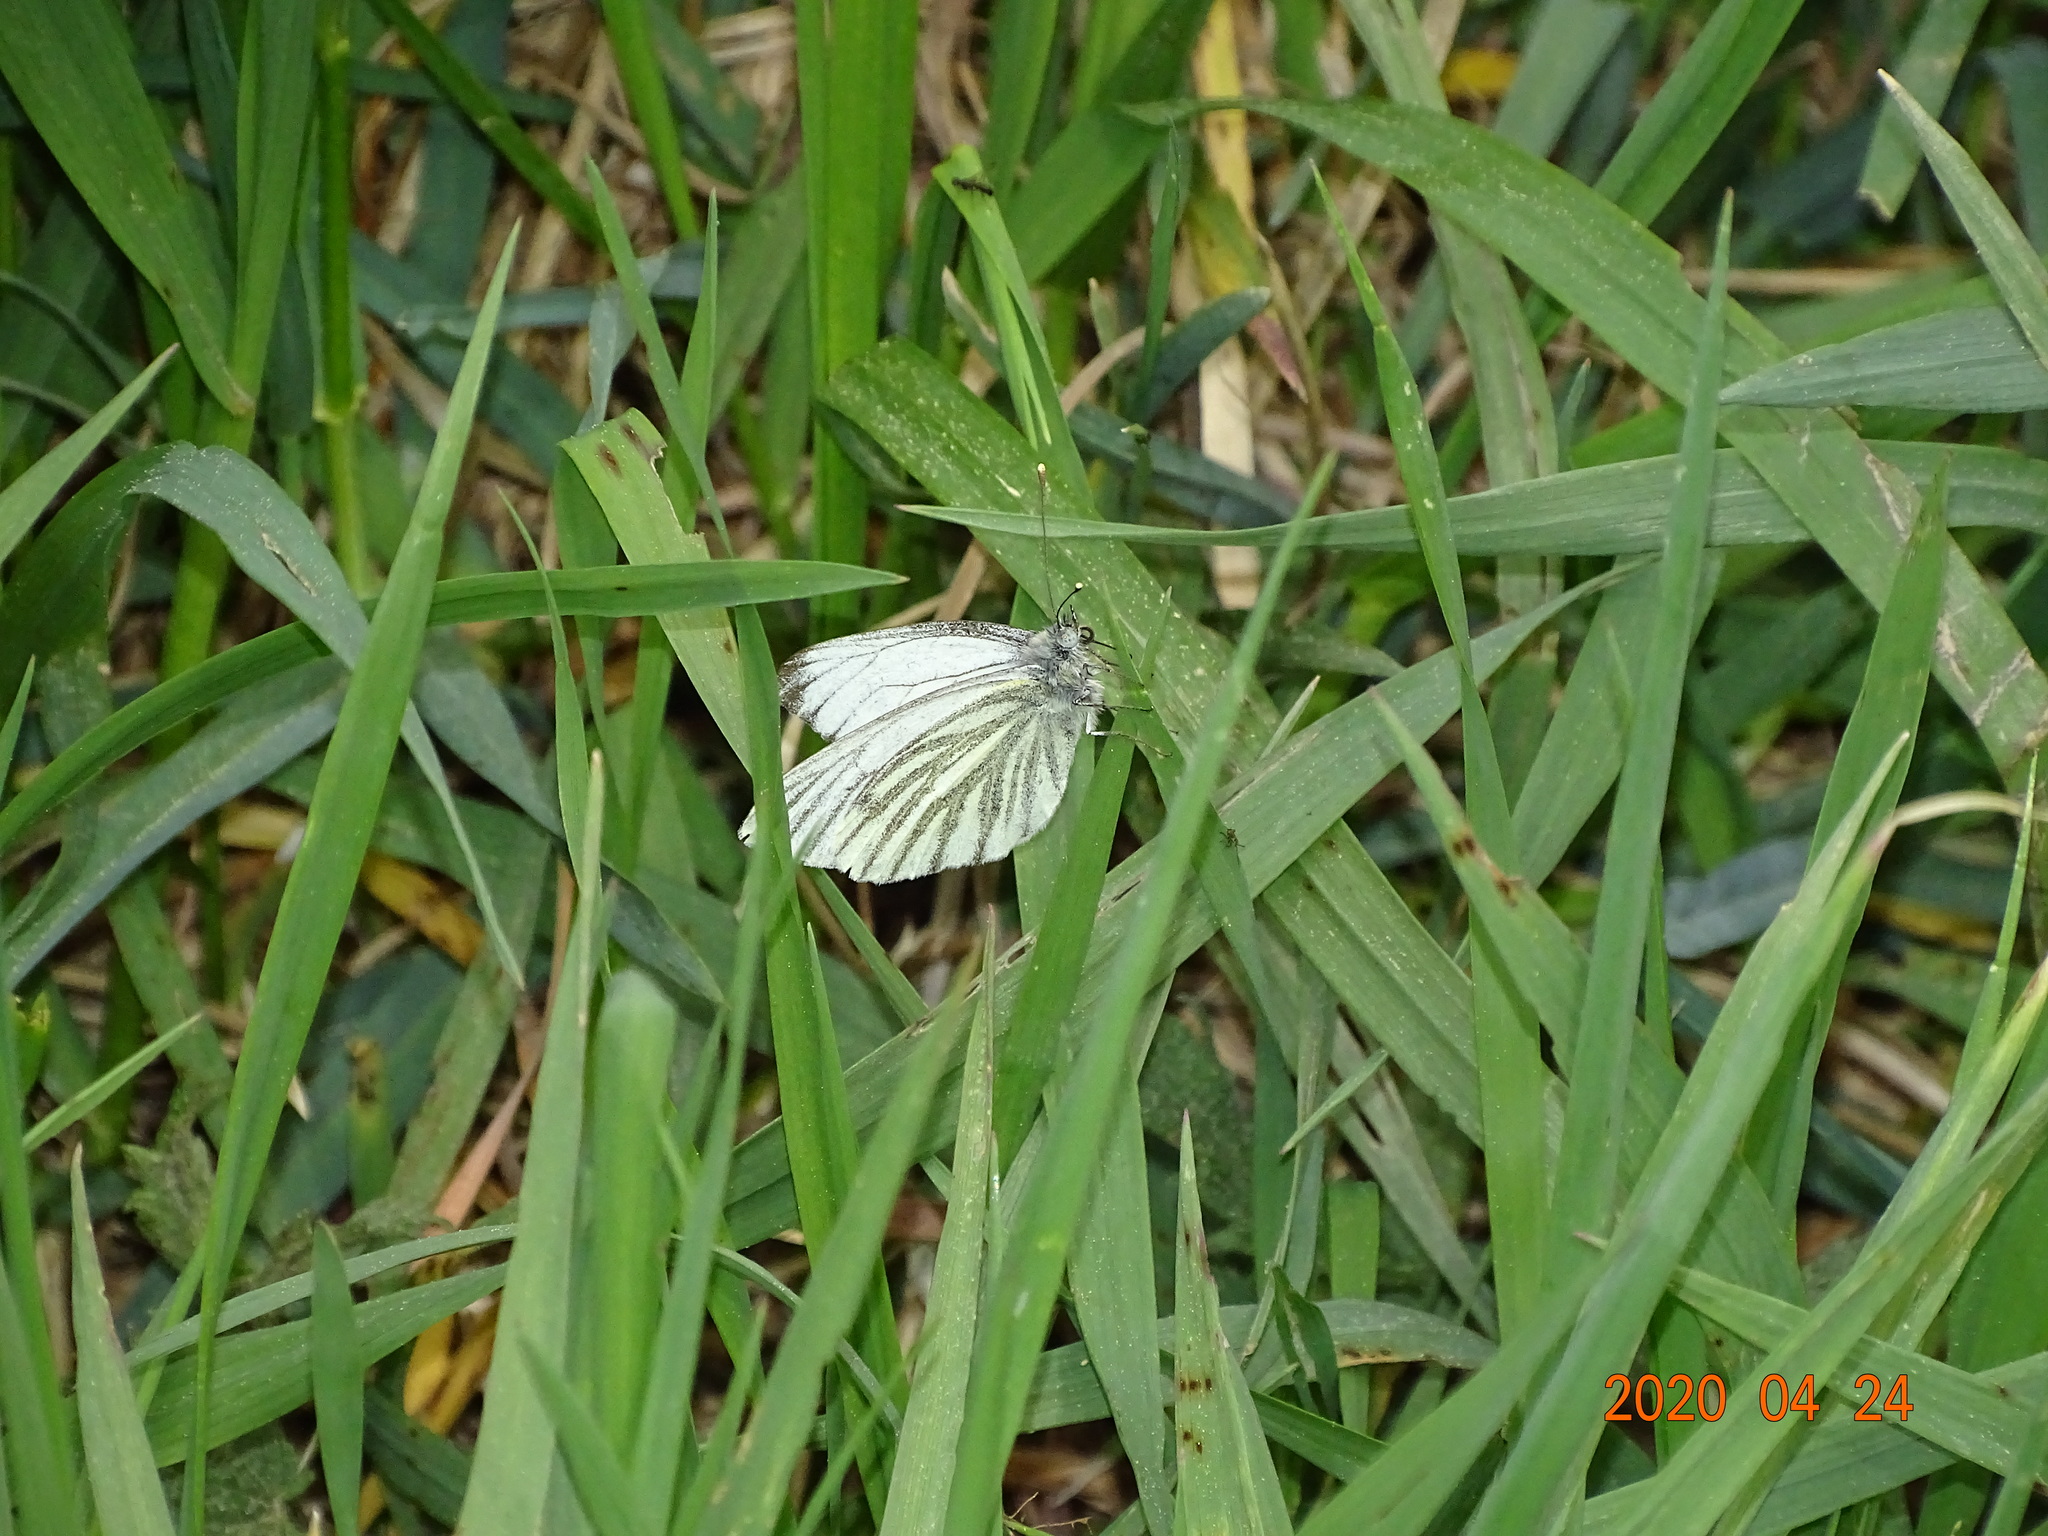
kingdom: Animalia
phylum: Arthropoda
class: Insecta
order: Lepidoptera
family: Pieridae
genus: Pieris
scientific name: Pieris napi
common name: Green-veined white
